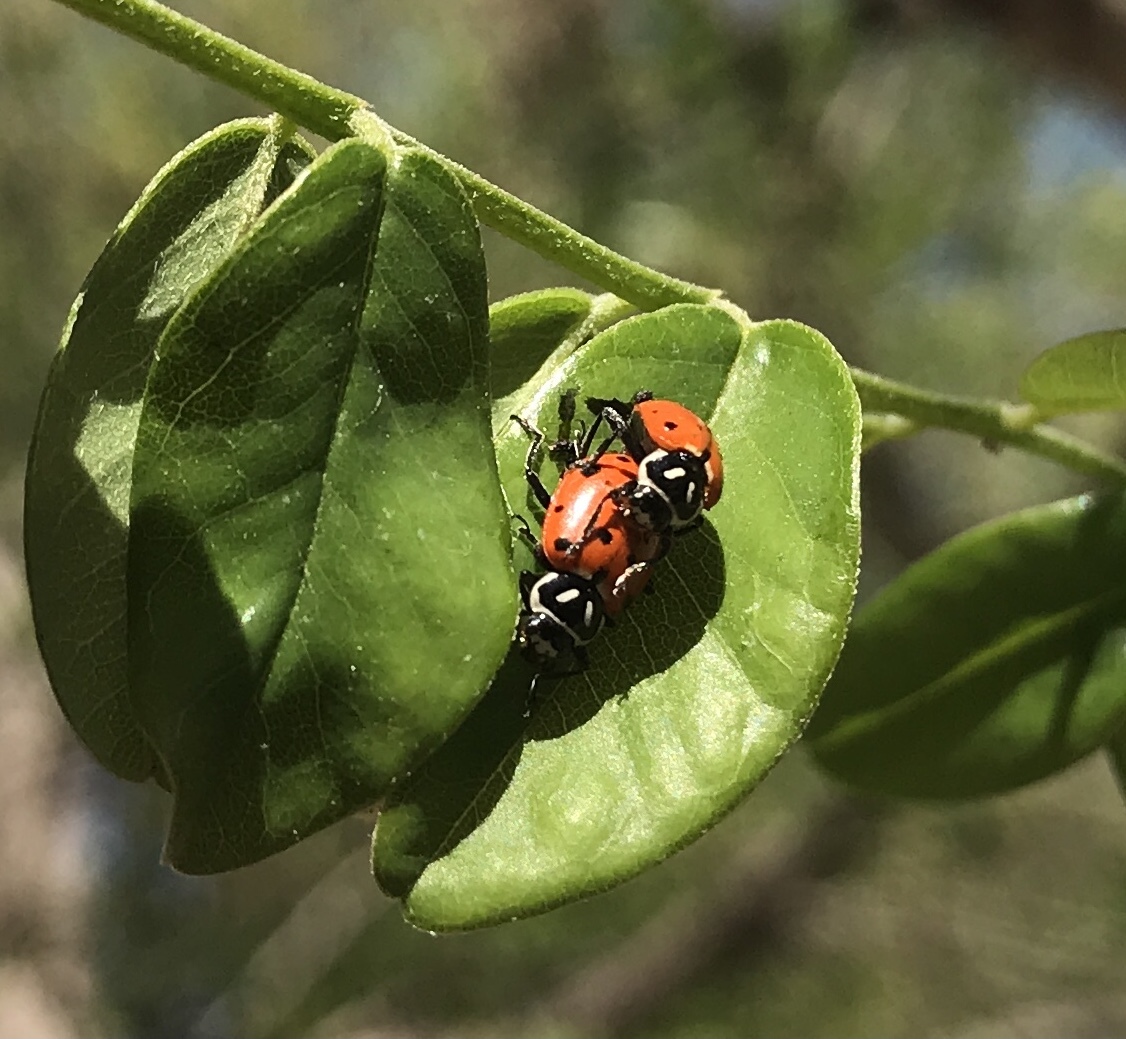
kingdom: Animalia
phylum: Arthropoda
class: Insecta
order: Coleoptera
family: Coccinellidae
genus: Hippodamia
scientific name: Hippodamia convergens
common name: Convergent lady beetle
